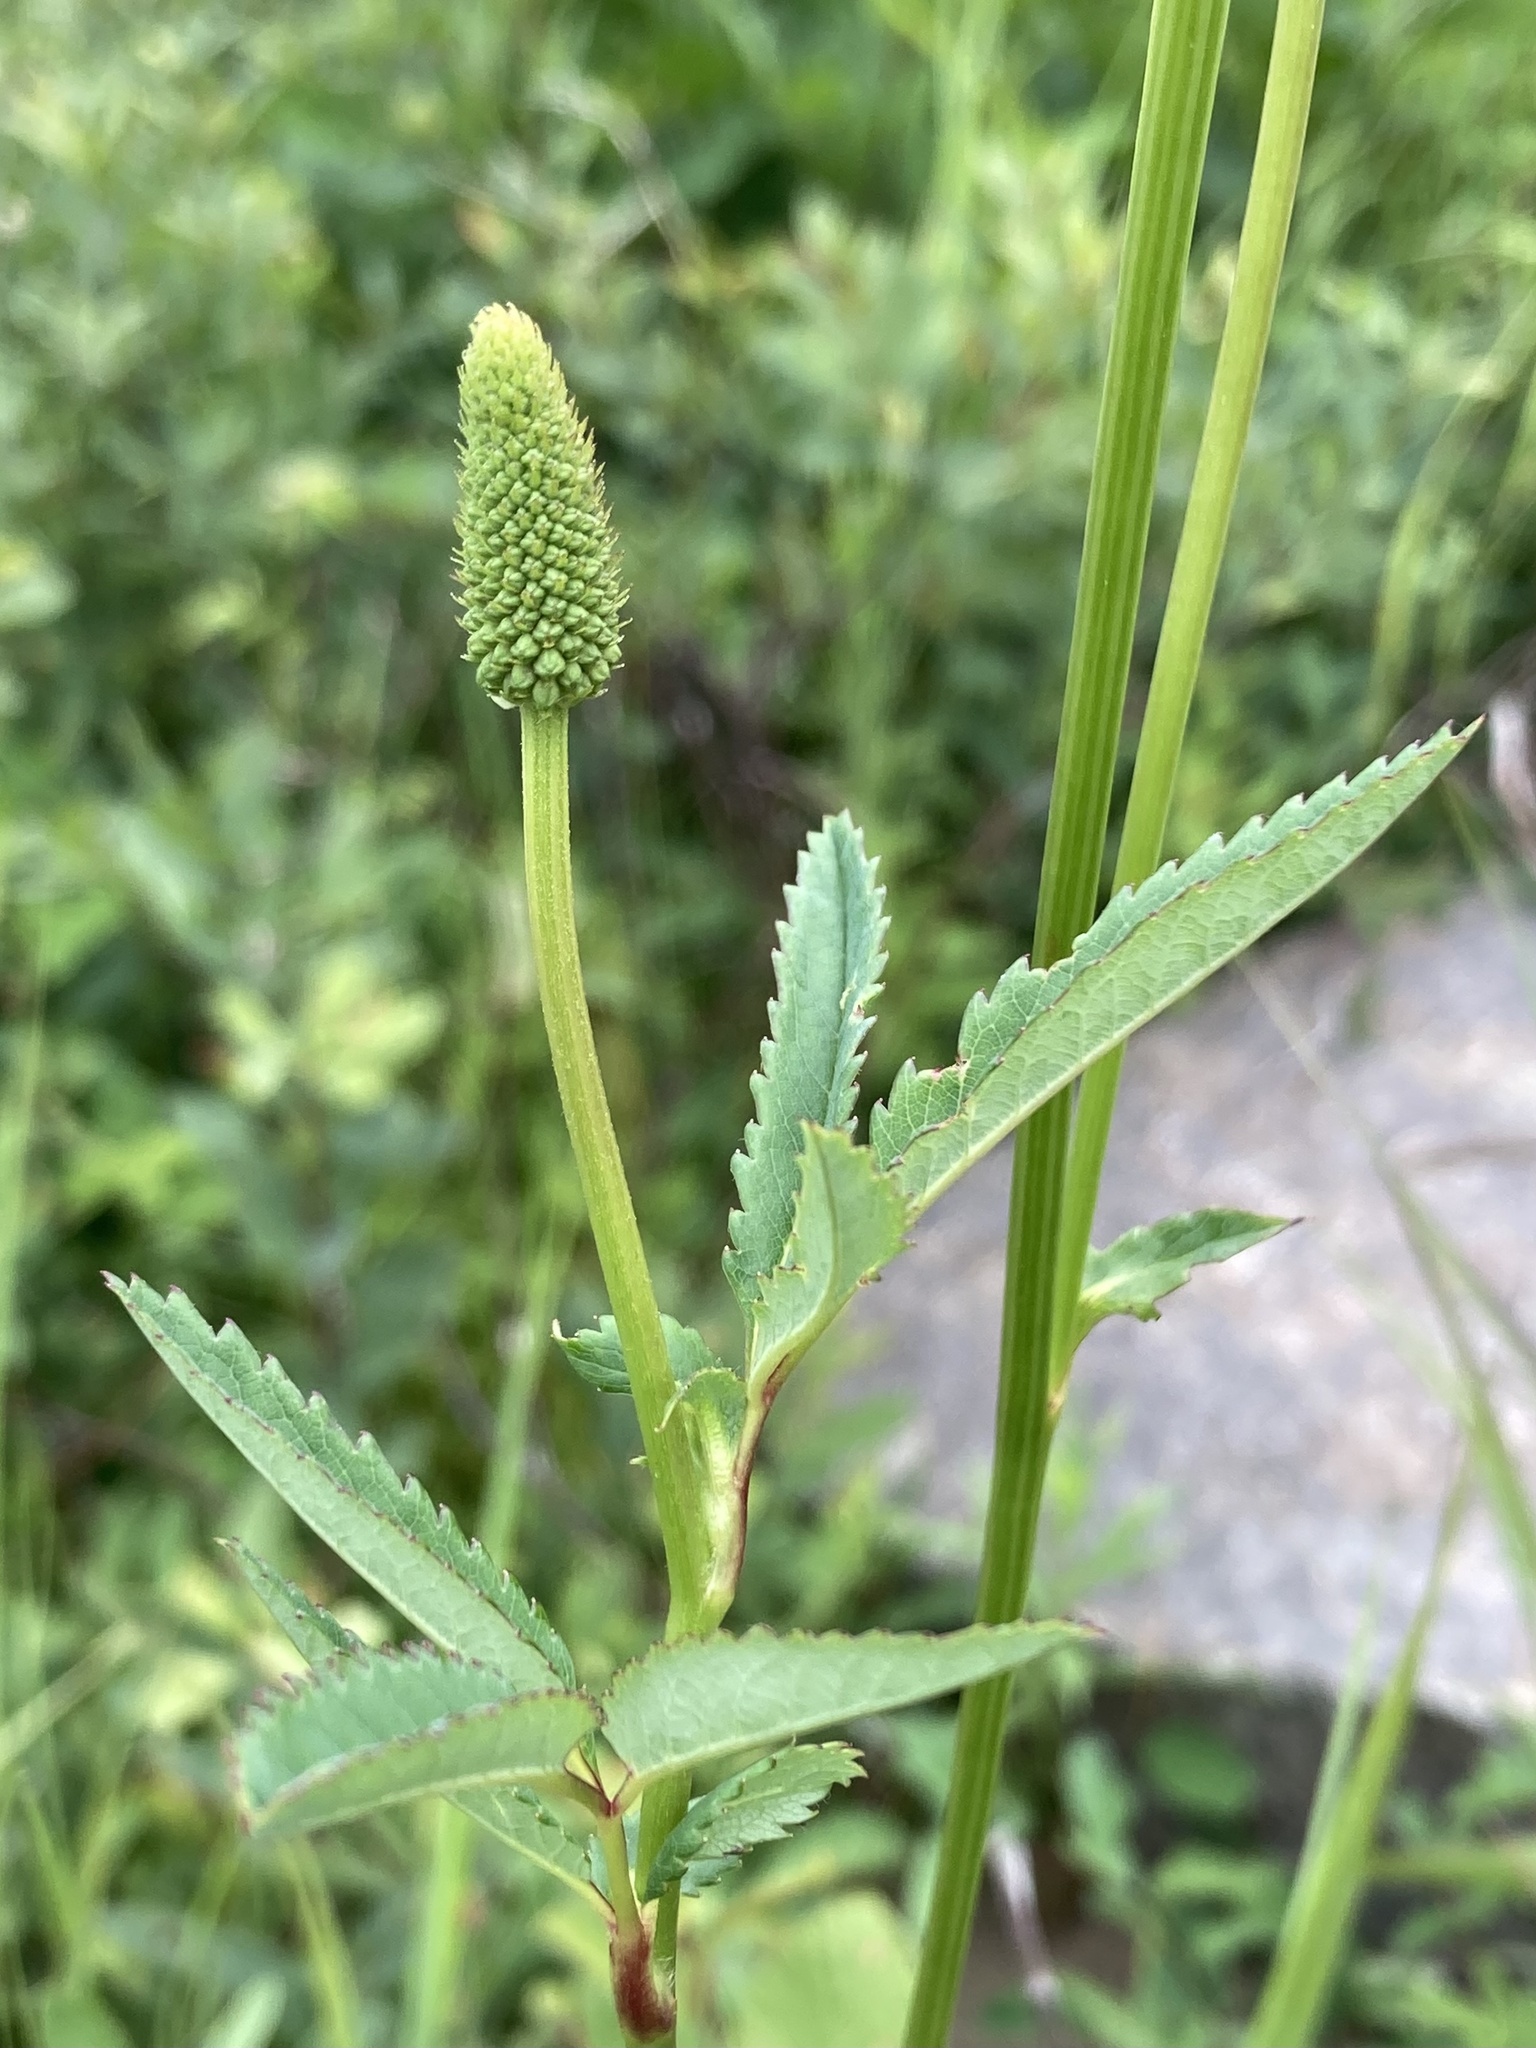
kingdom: Plantae
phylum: Tracheophyta
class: Magnoliopsida
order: Rosales
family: Rosaceae
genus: Sanguisorba
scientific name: Sanguisorba canadensis
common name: White burnet
